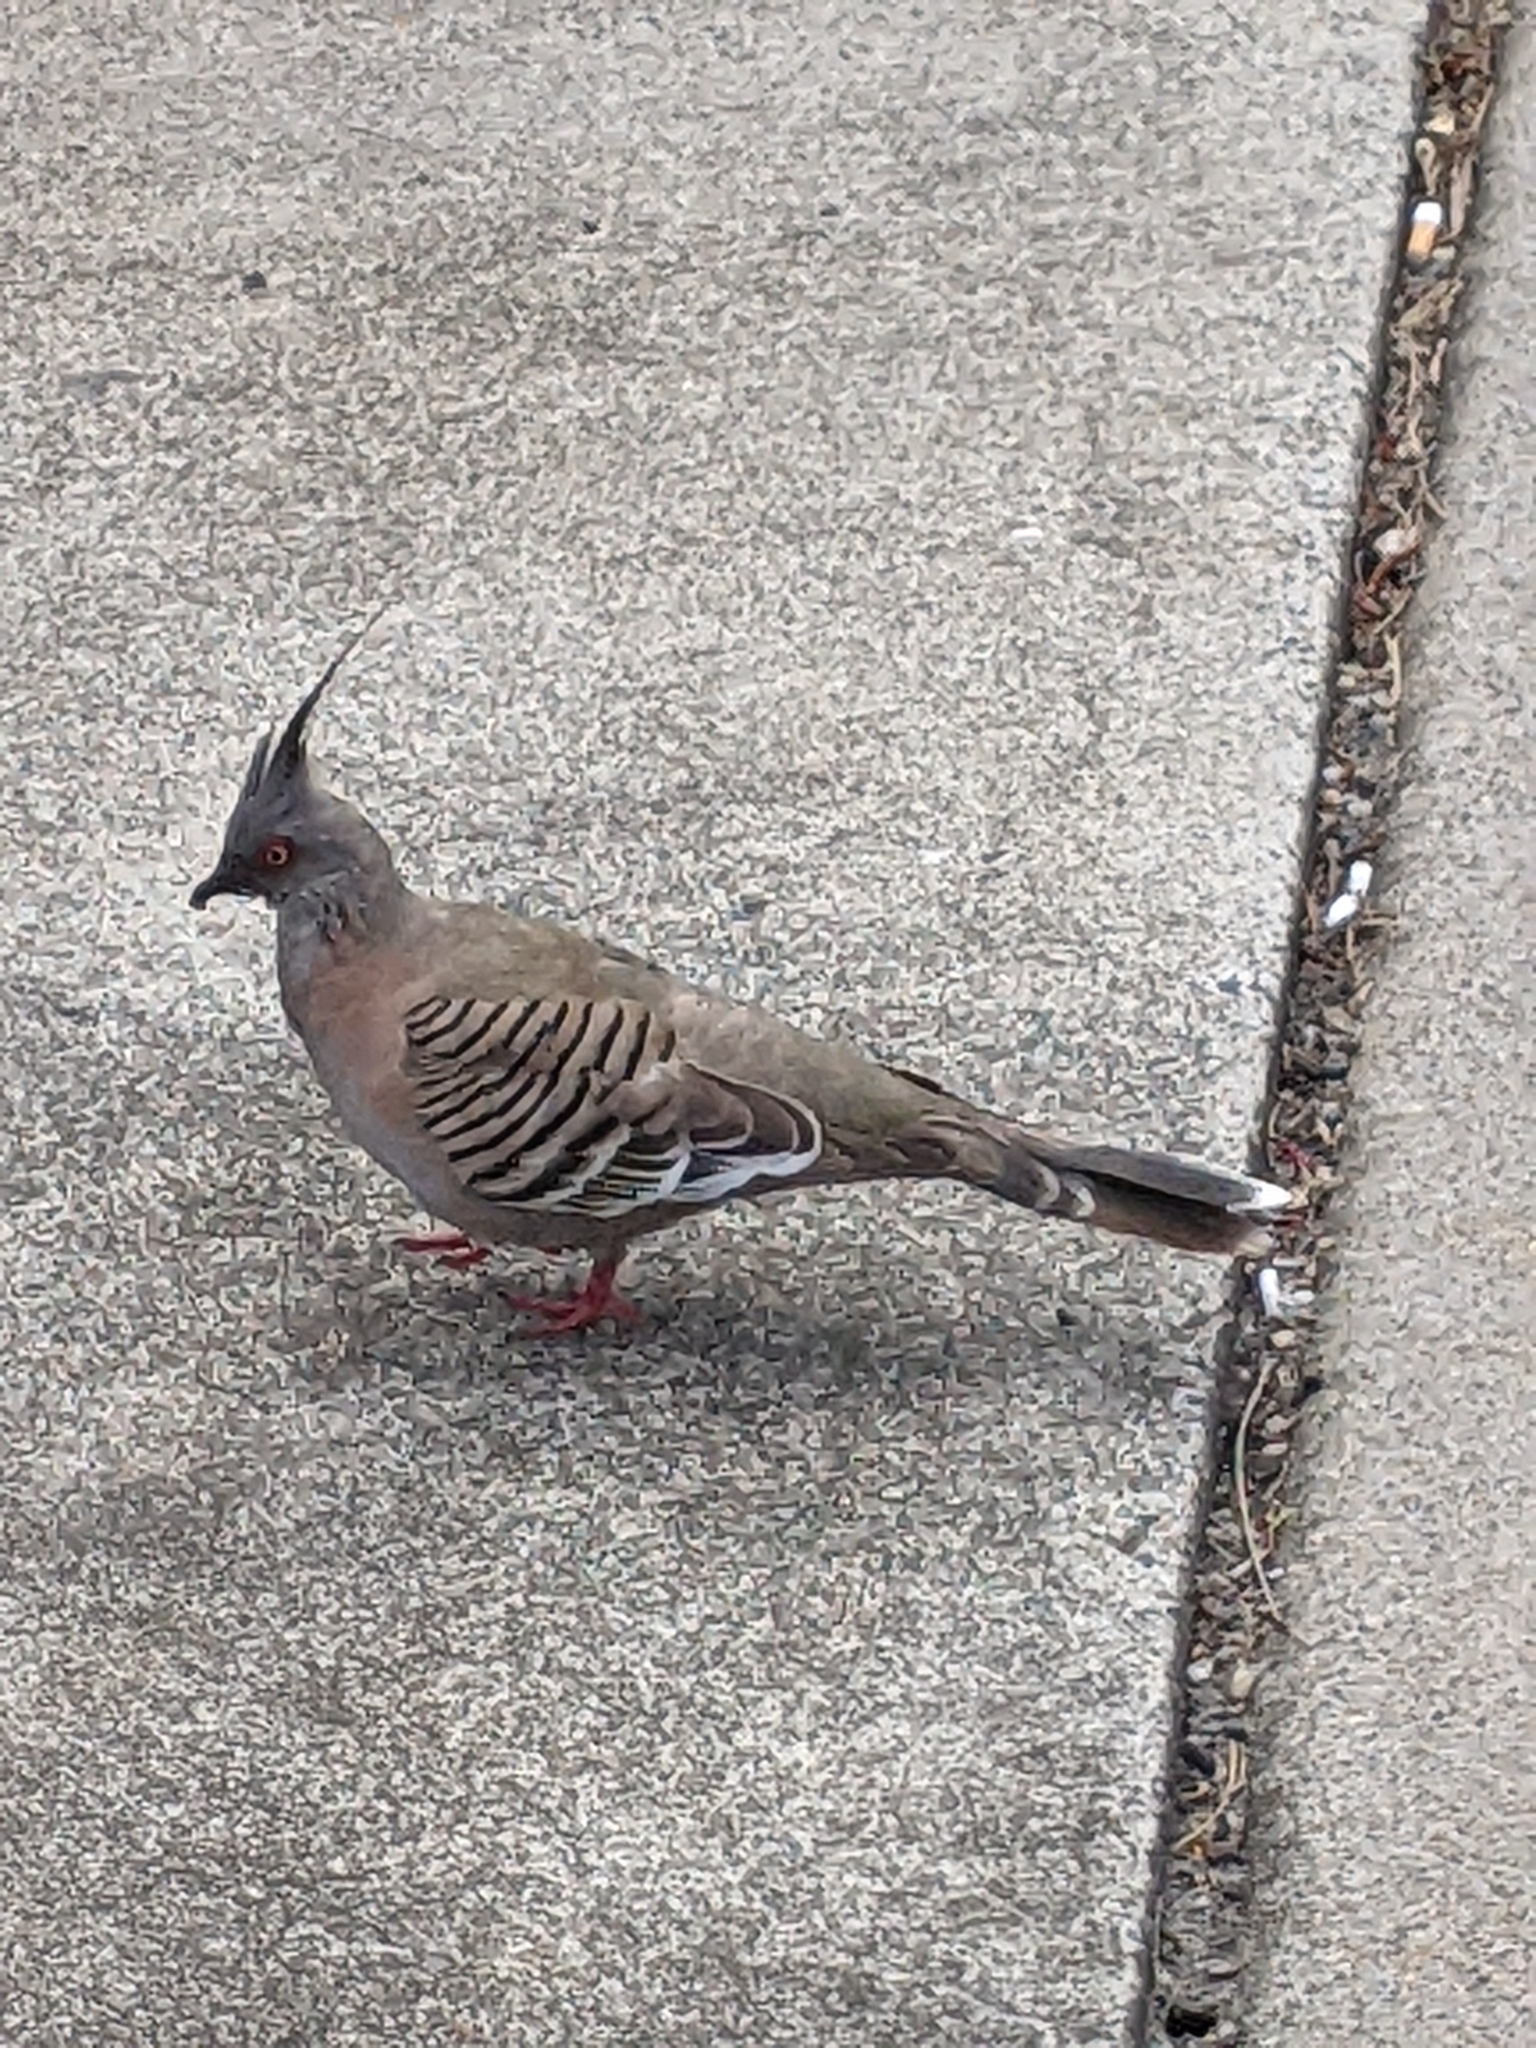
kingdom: Animalia
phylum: Chordata
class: Aves
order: Columbiformes
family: Columbidae
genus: Ocyphaps
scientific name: Ocyphaps lophotes
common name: Crested pigeon
